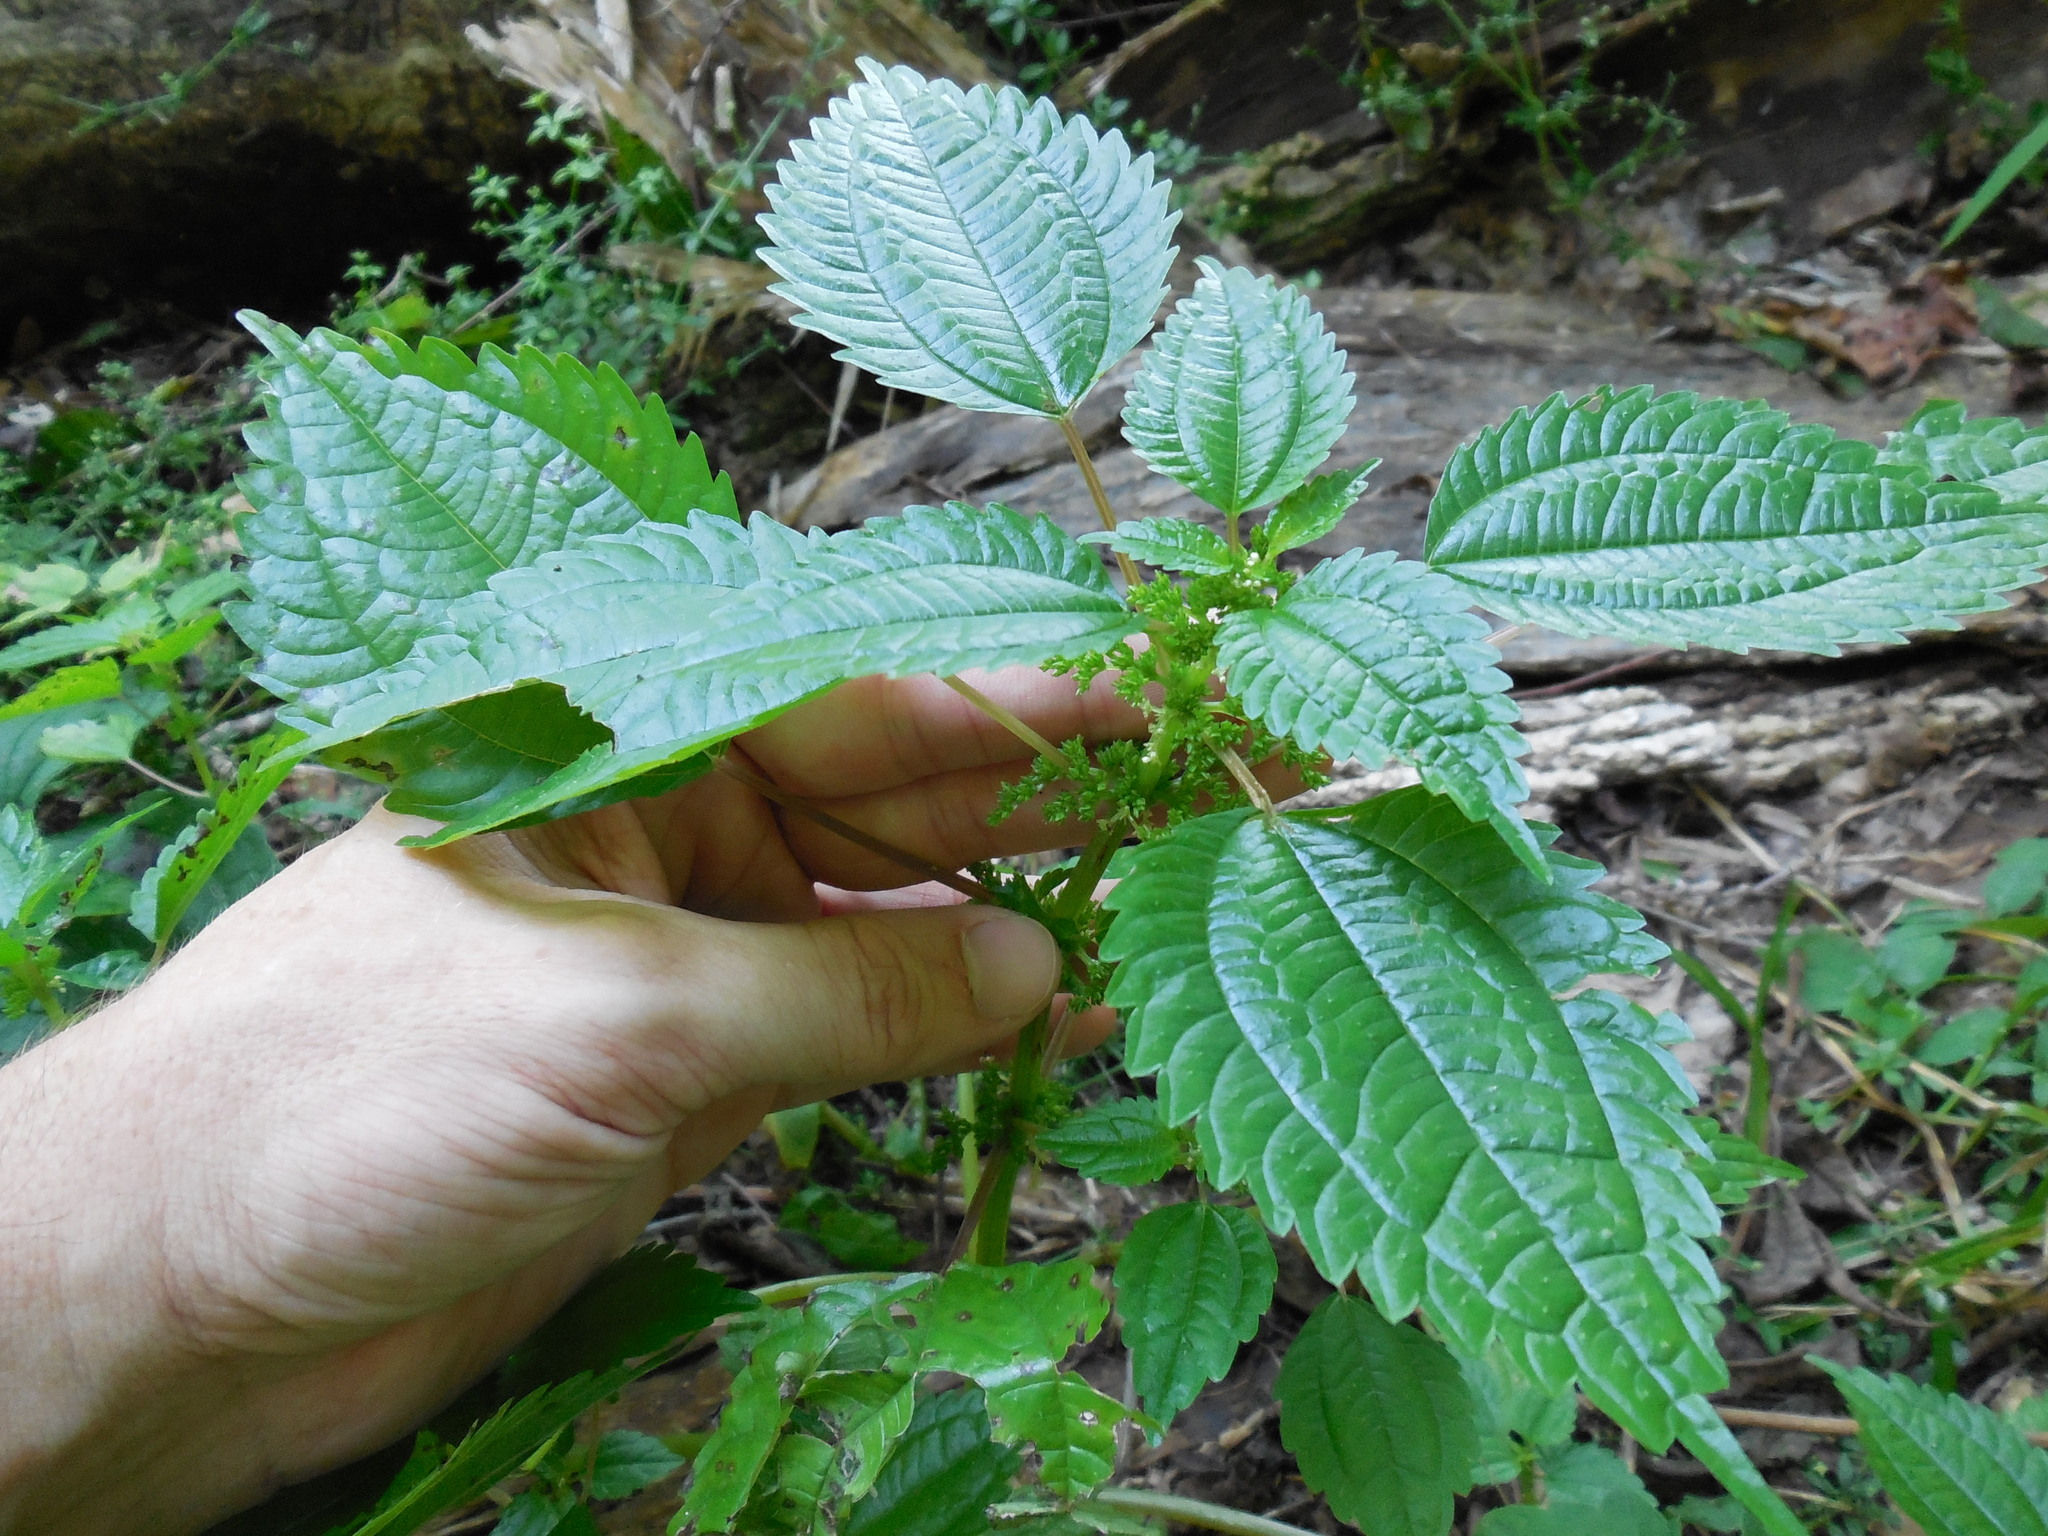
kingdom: Plantae
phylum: Tracheophyta
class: Magnoliopsida
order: Rosales
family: Urticaceae
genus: Pilea
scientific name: Pilea pumila
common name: Clearweed
